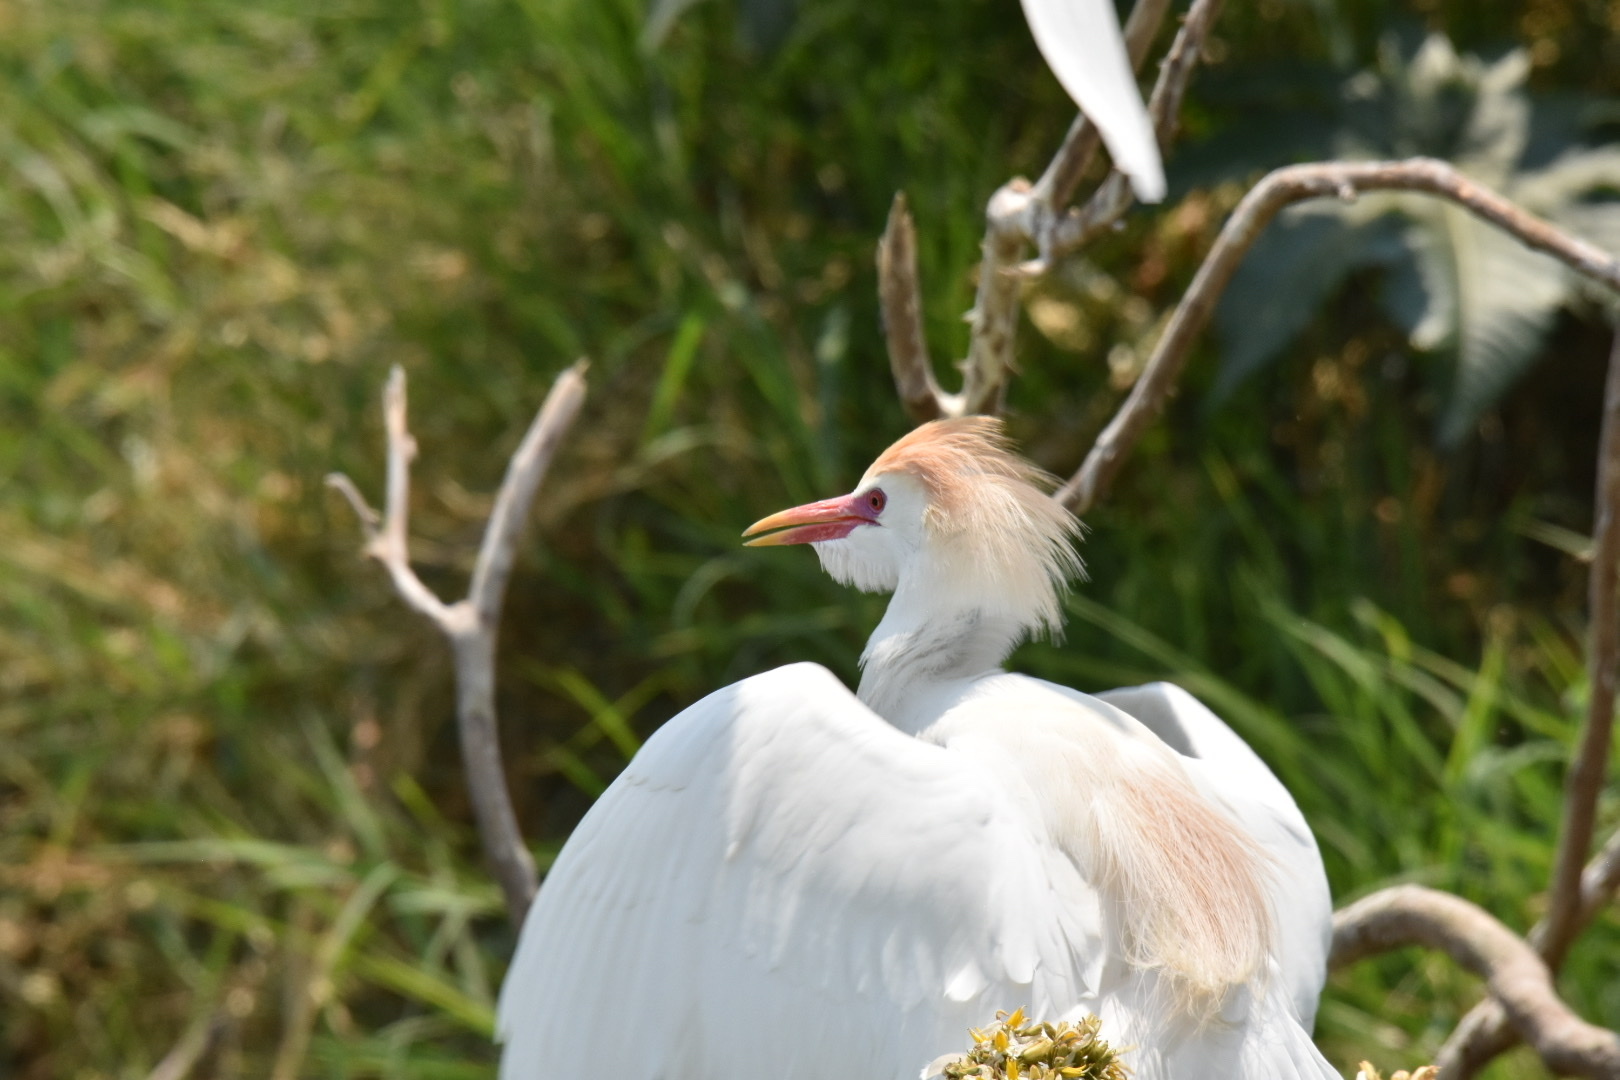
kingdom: Animalia
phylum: Chordata
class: Aves
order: Pelecaniformes
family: Ardeidae
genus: Bubulcus
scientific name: Bubulcus ibis
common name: Cattle egret
